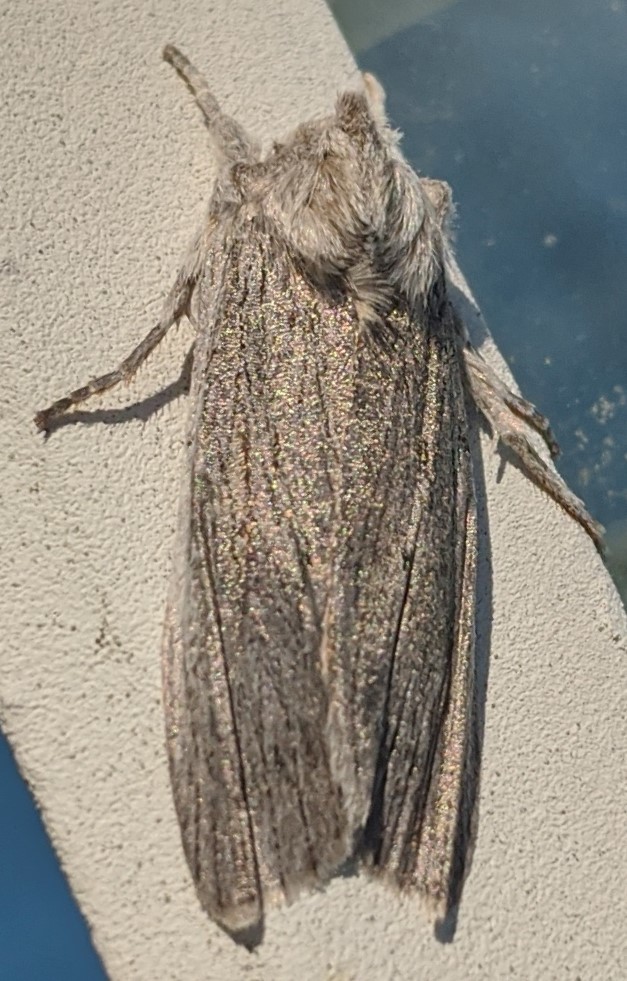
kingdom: Animalia
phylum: Arthropoda
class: Insecta
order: Lepidoptera
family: Noctuidae
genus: Lithophane
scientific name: Lithophane fagina
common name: Hoary pinion moth
